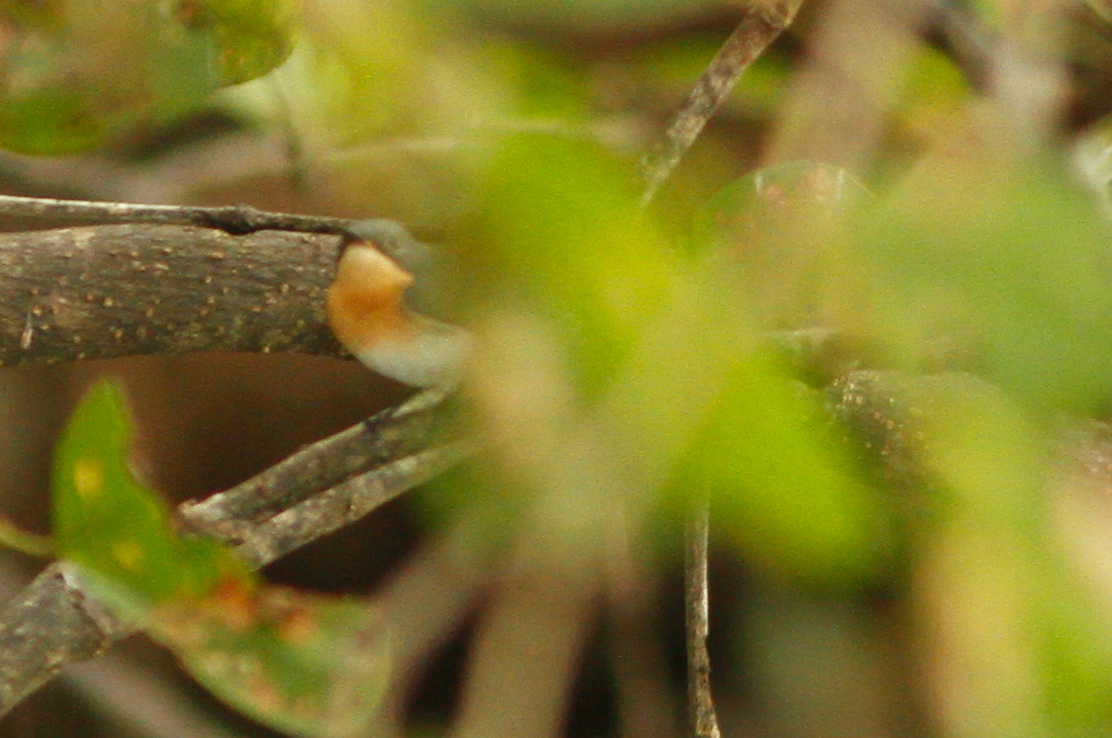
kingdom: Animalia
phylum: Chordata
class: Aves
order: Passeriformes
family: Monarchidae
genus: Myiagra
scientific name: Myiagra rubecula
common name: Leaden flycatcher
